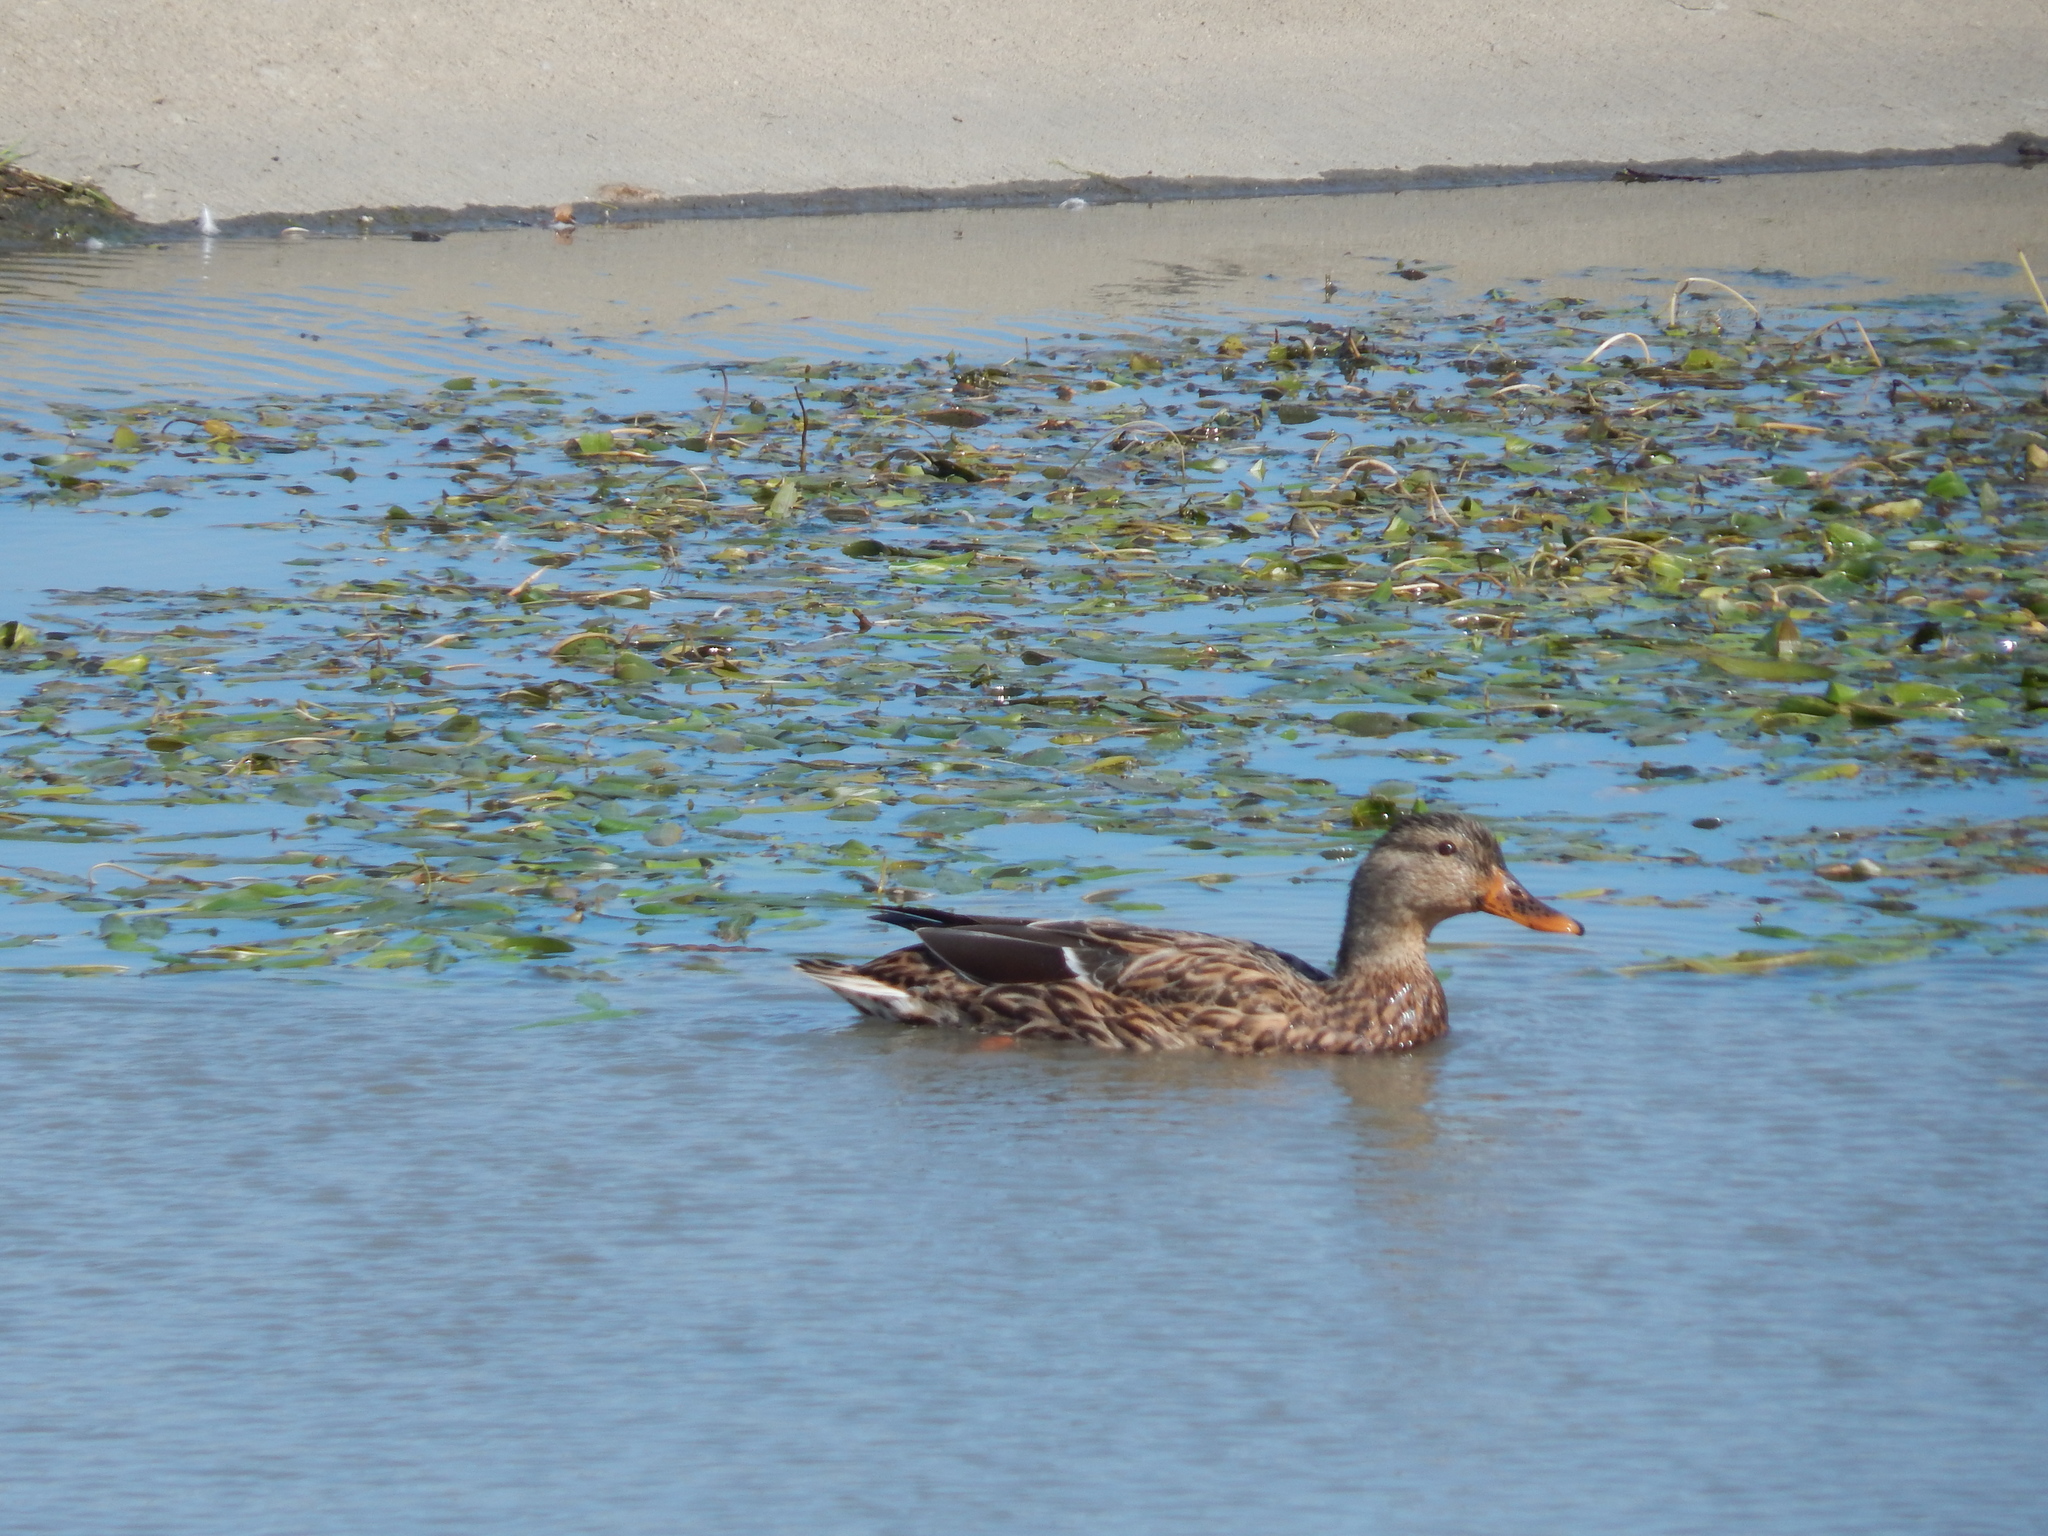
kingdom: Animalia
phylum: Chordata
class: Aves
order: Anseriformes
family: Anatidae
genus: Anas
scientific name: Anas platyrhynchos
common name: Mallard
